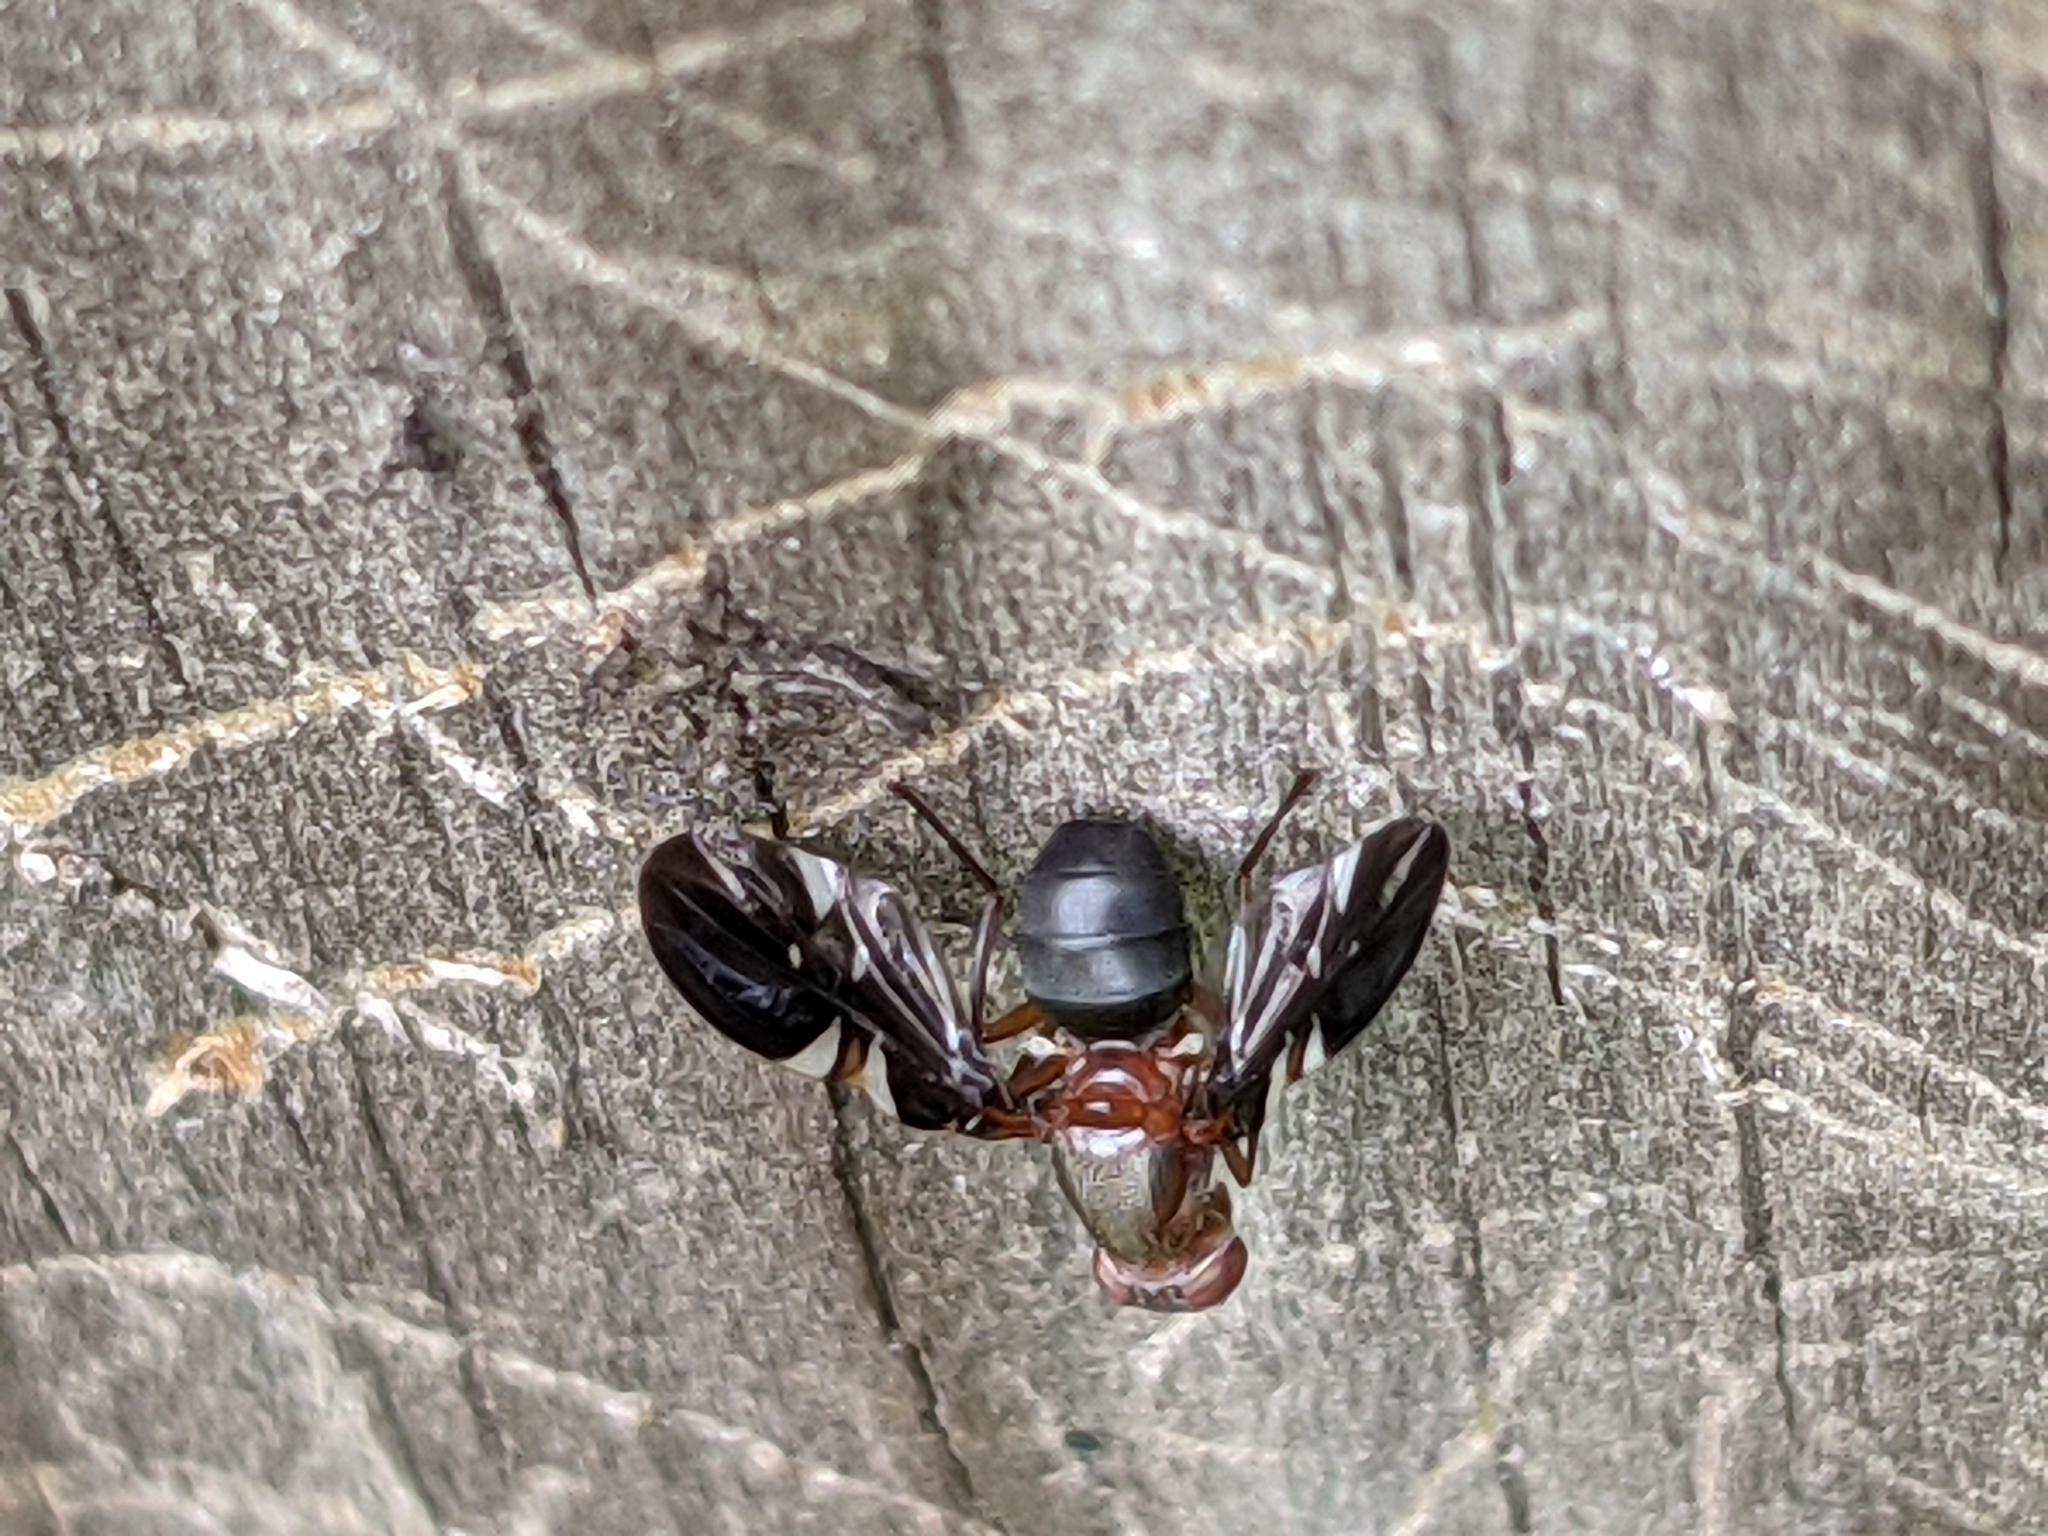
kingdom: Animalia
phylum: Arthropoda
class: Insecta
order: Diptera
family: Ulidiidae
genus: Delphinia
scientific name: Delphinia picta
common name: Common picture-winged fly
